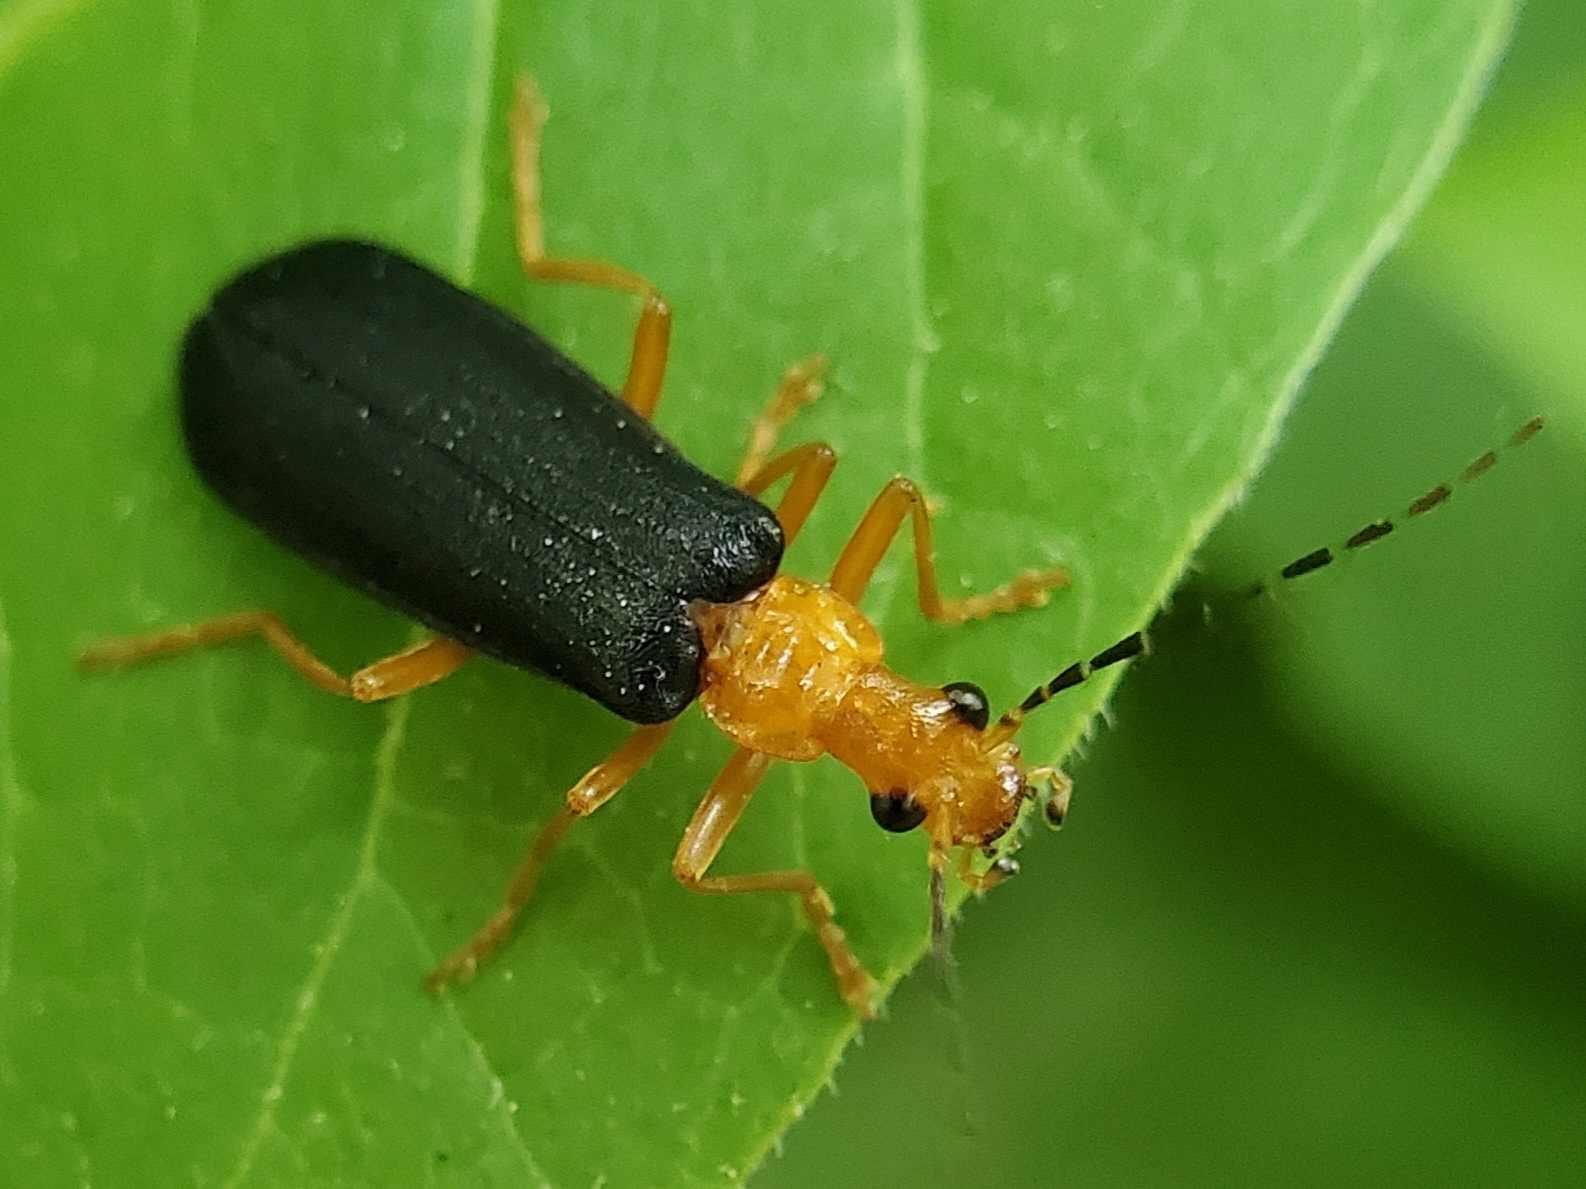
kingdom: Animalia
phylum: Arthropoda
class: Insecta
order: Coleoptera
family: Cantharidae
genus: Podabrus
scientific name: Podabrus fayi
